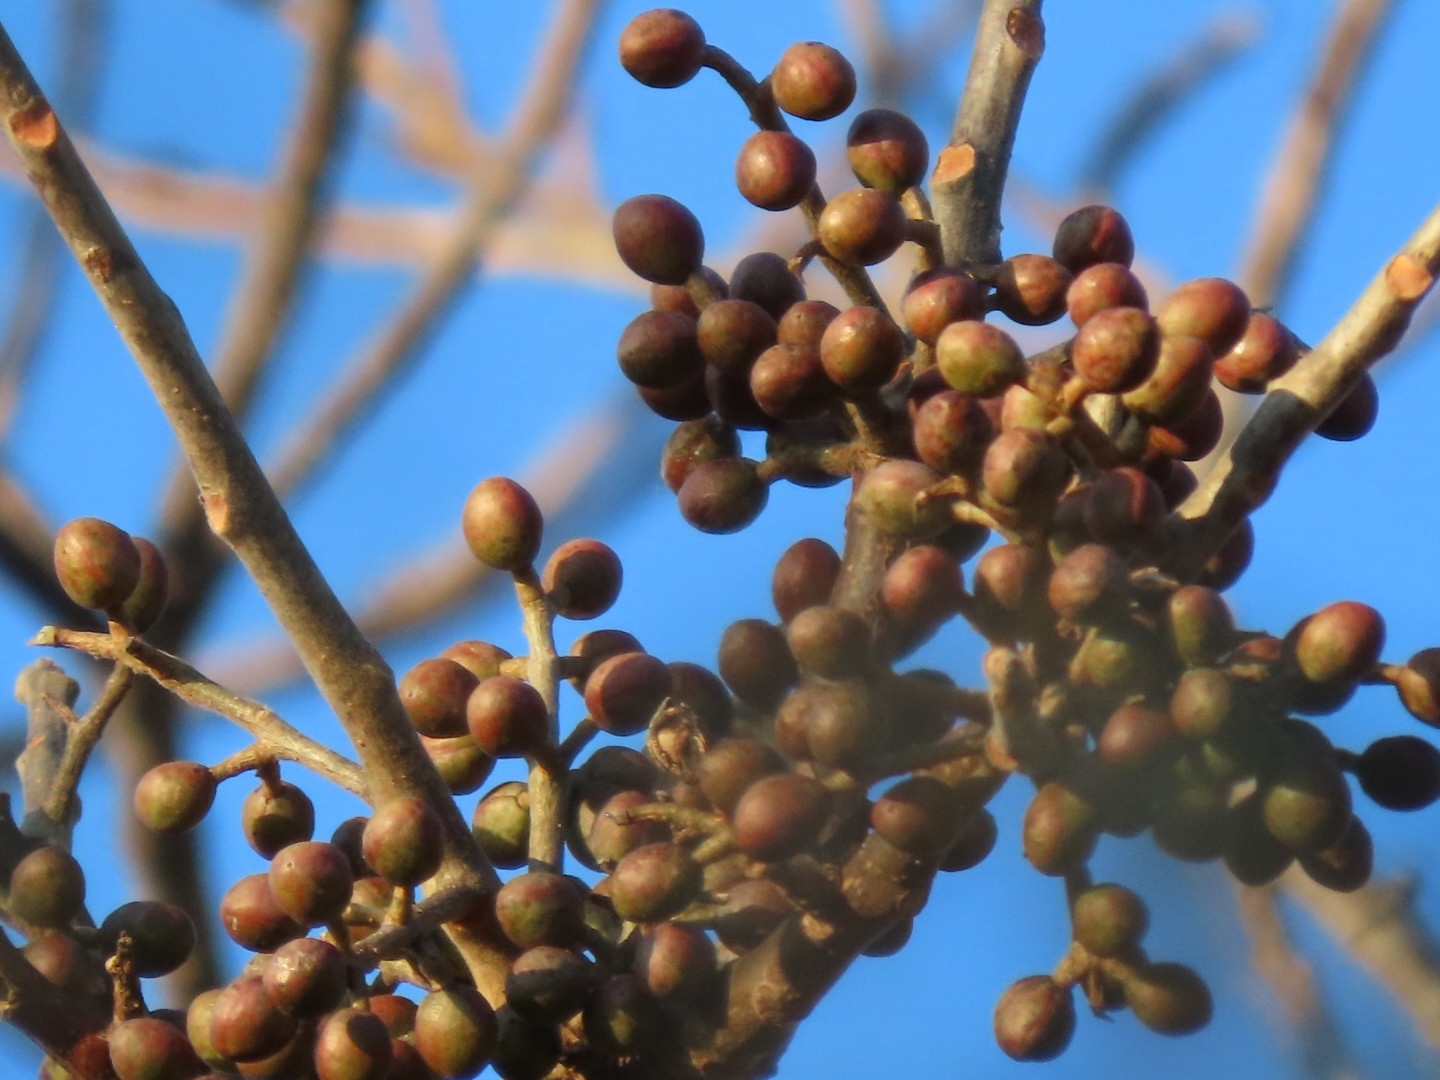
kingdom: Plantae
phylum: Tracheophyta
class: Magnoliopsida
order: Sapindales
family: Burseraceae
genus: Bursera
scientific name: Bursera simaruba
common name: Turpentine tree
